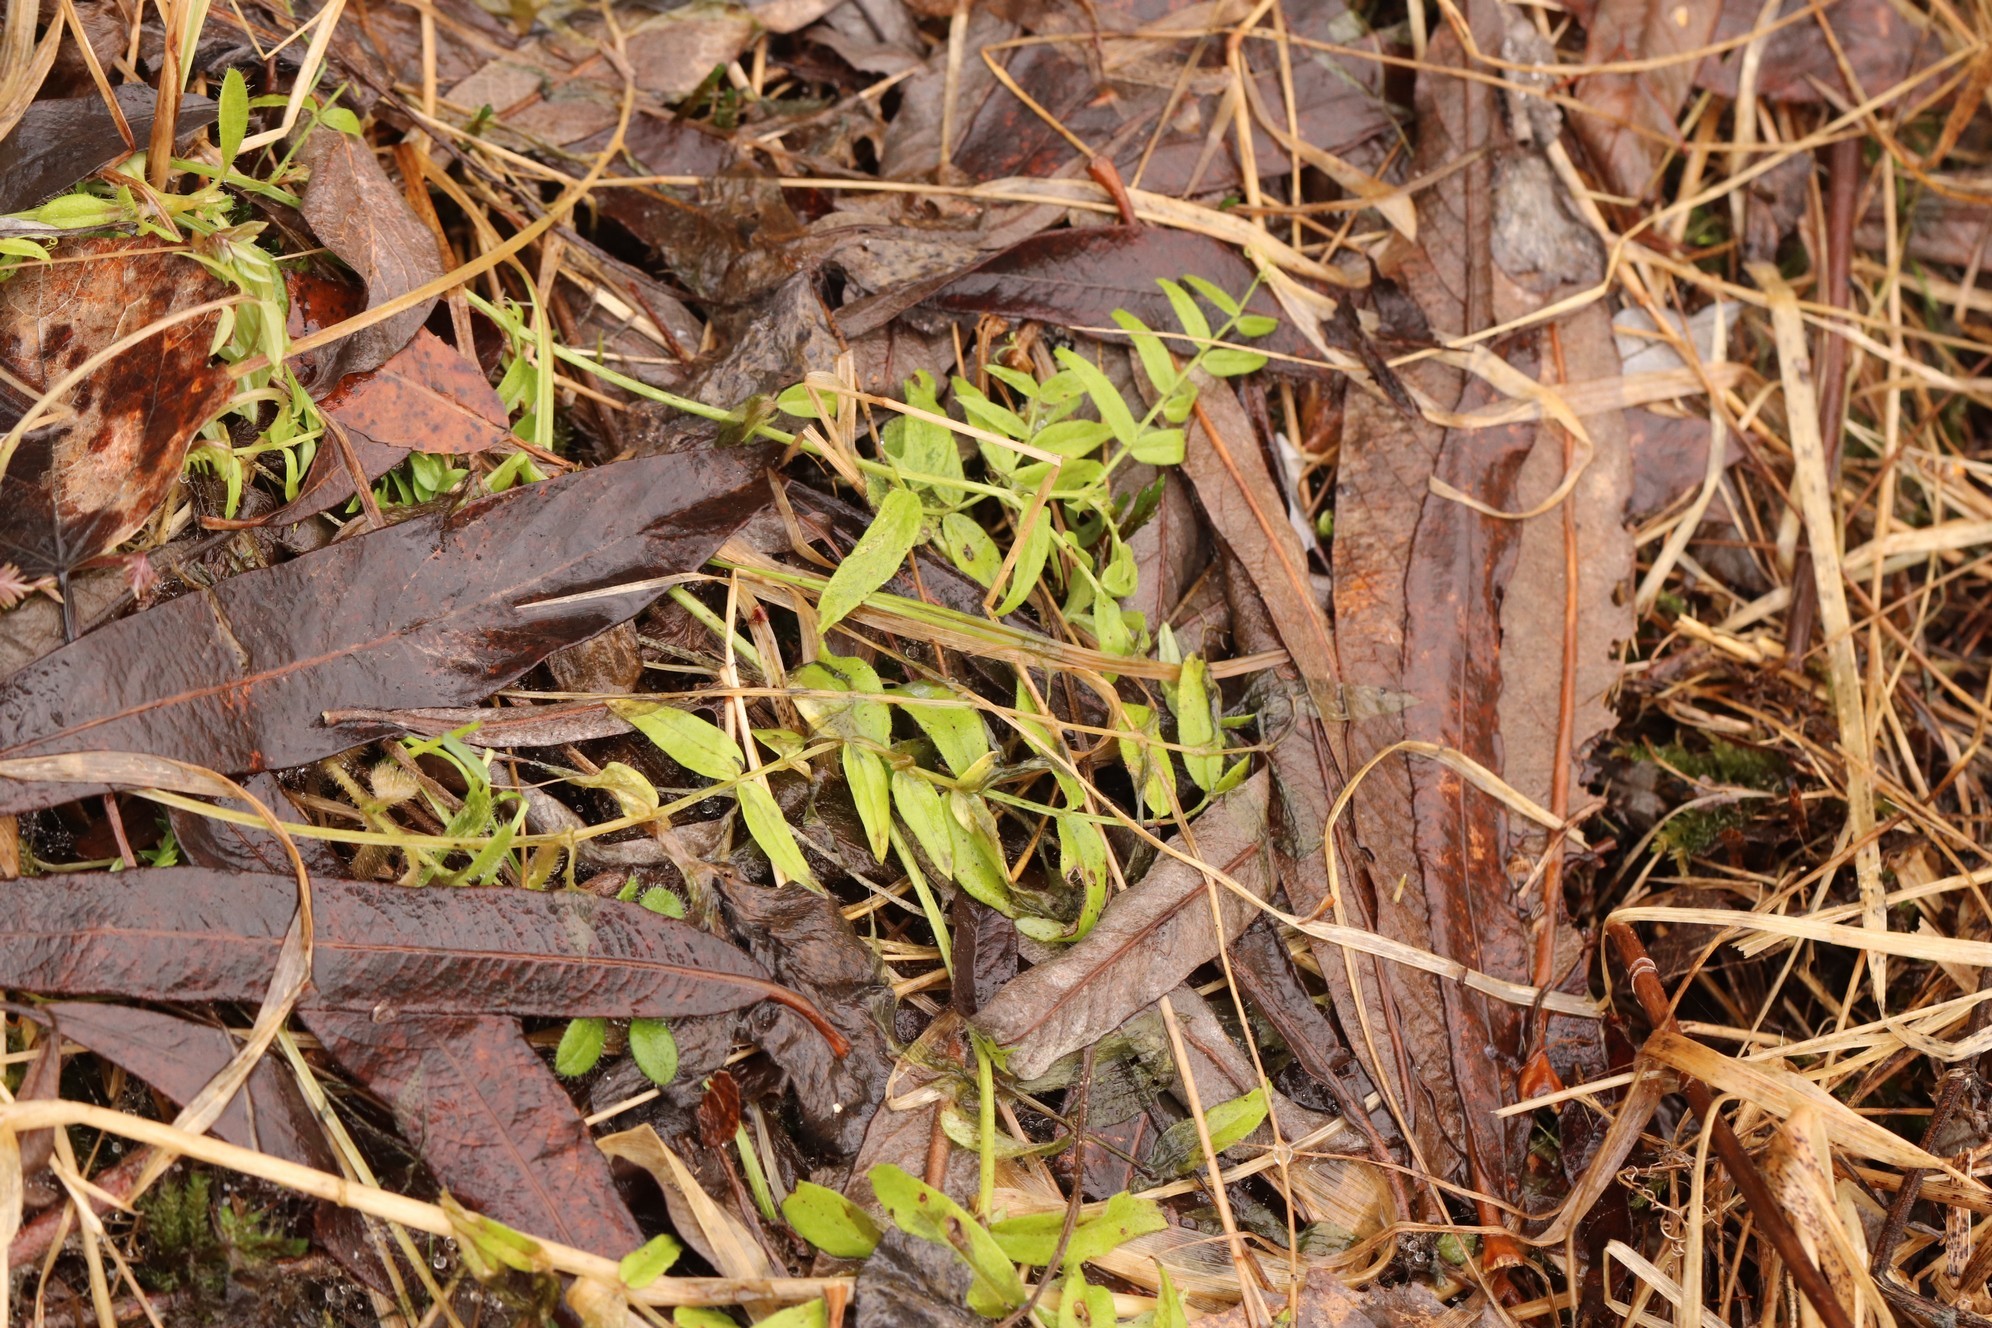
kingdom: Plantae
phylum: Tracheophyta
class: Magnoliopsida
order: Fabales
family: Fabaceae
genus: Vicia
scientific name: Vicia sepium
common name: Bush vetch
